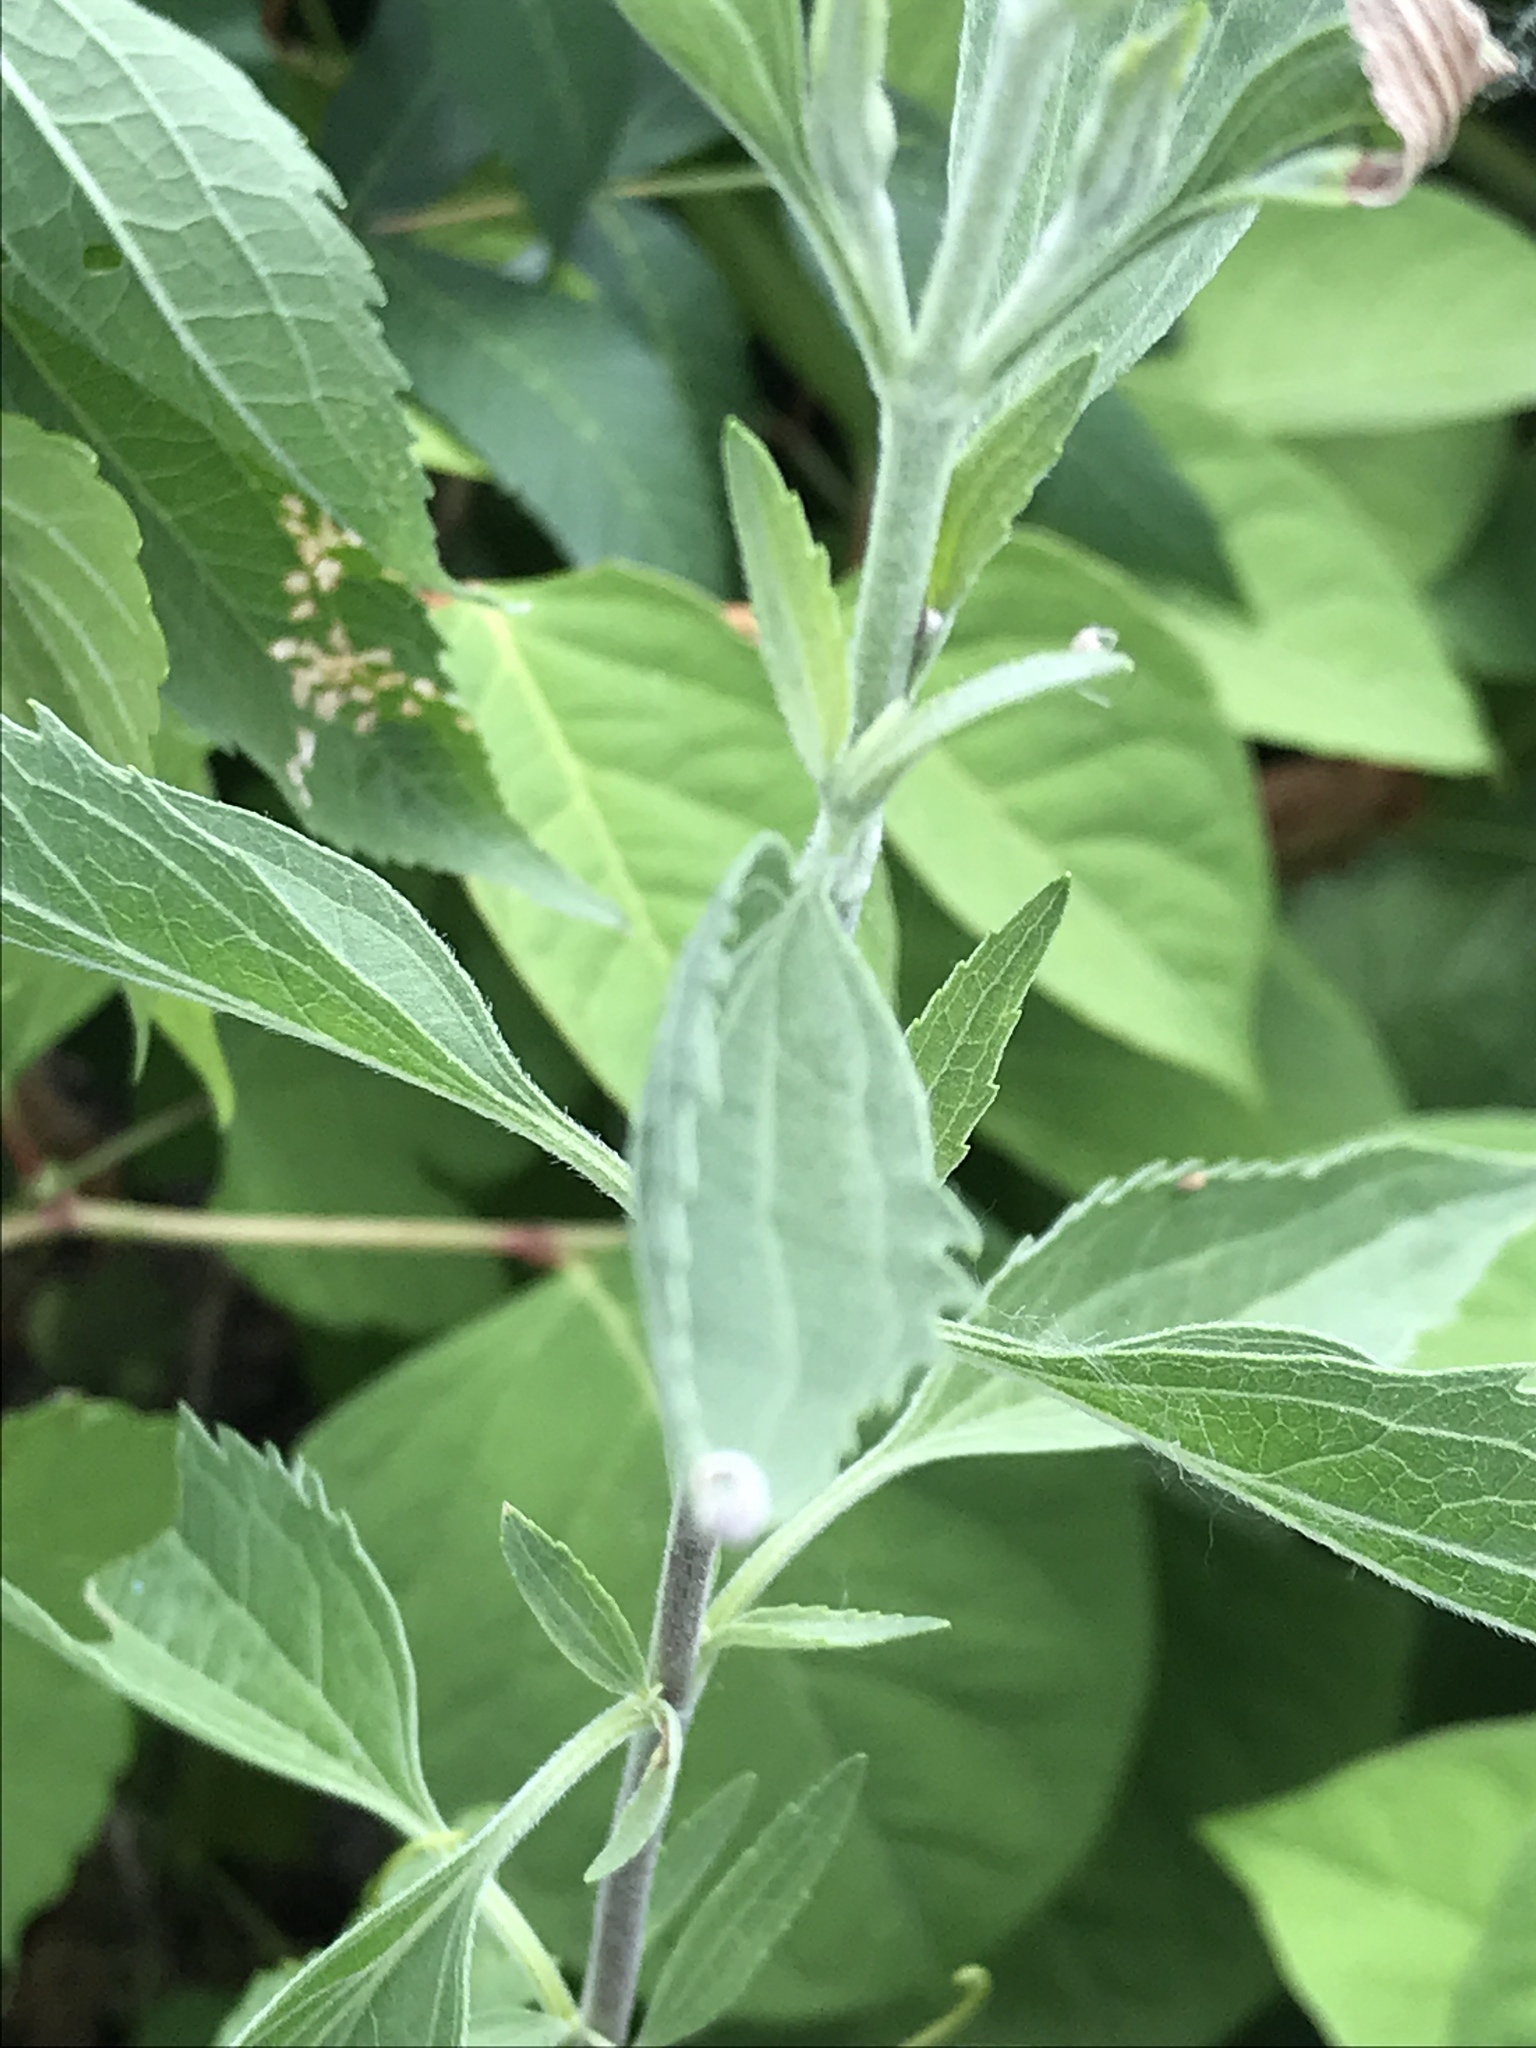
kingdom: Plantae
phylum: Tracheophyta
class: Magnoliopsida
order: Asterales
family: Asteraceae
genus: Eupatorium
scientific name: Eupatorium serotinum
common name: Late boneset
